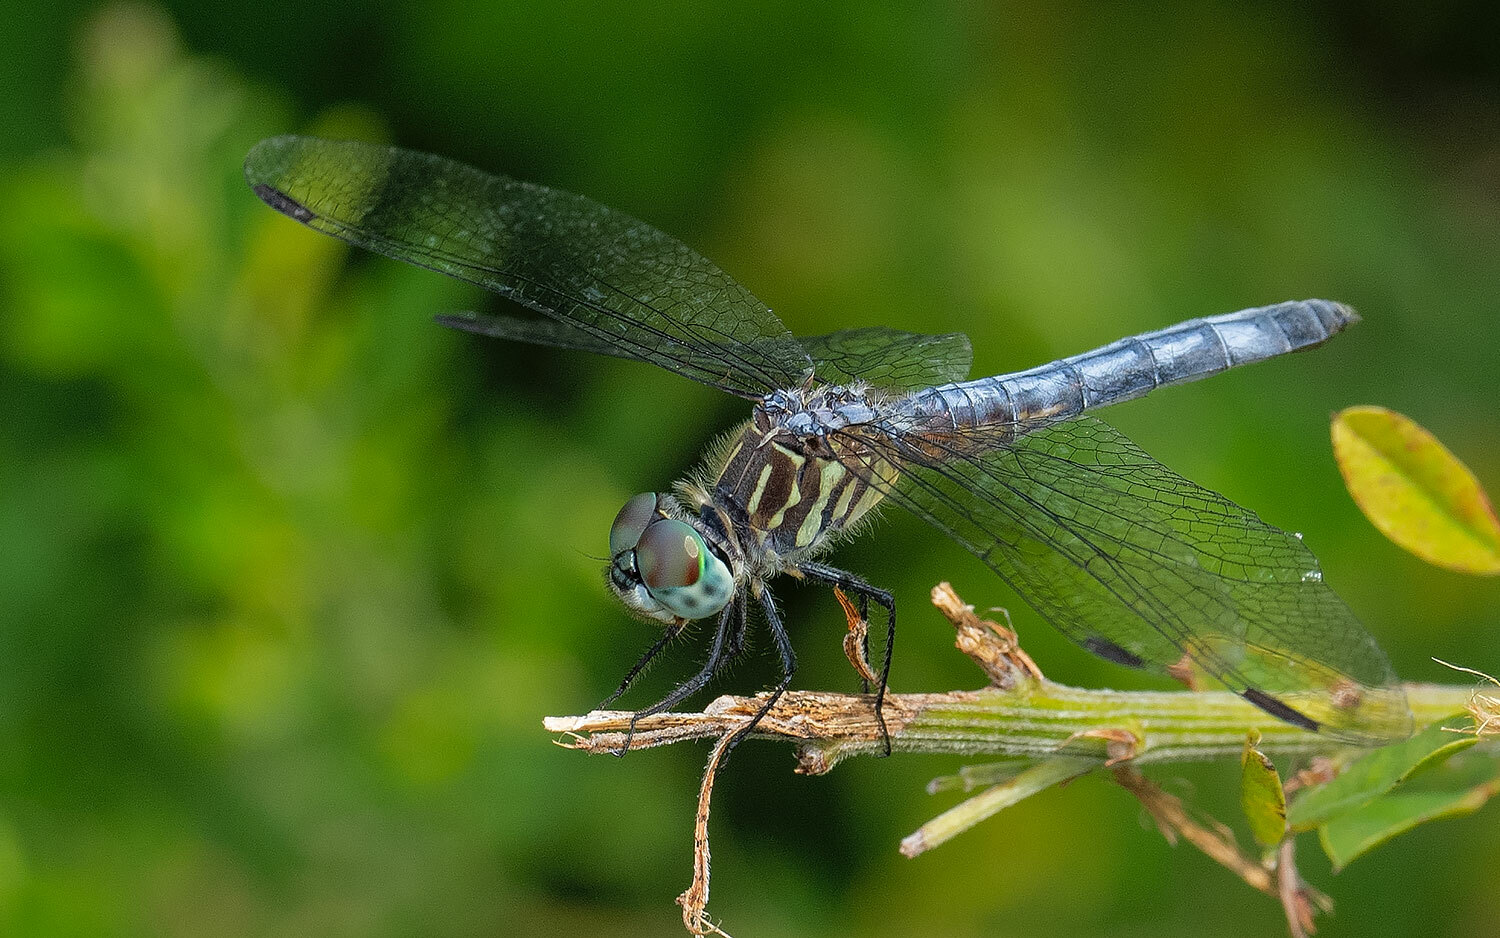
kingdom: Animalia
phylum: Arthropoda
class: Insecta
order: Odonata
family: Libellulidae
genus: Pachydiplax
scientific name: Pachydiplax longipennis
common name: Blue dasher
